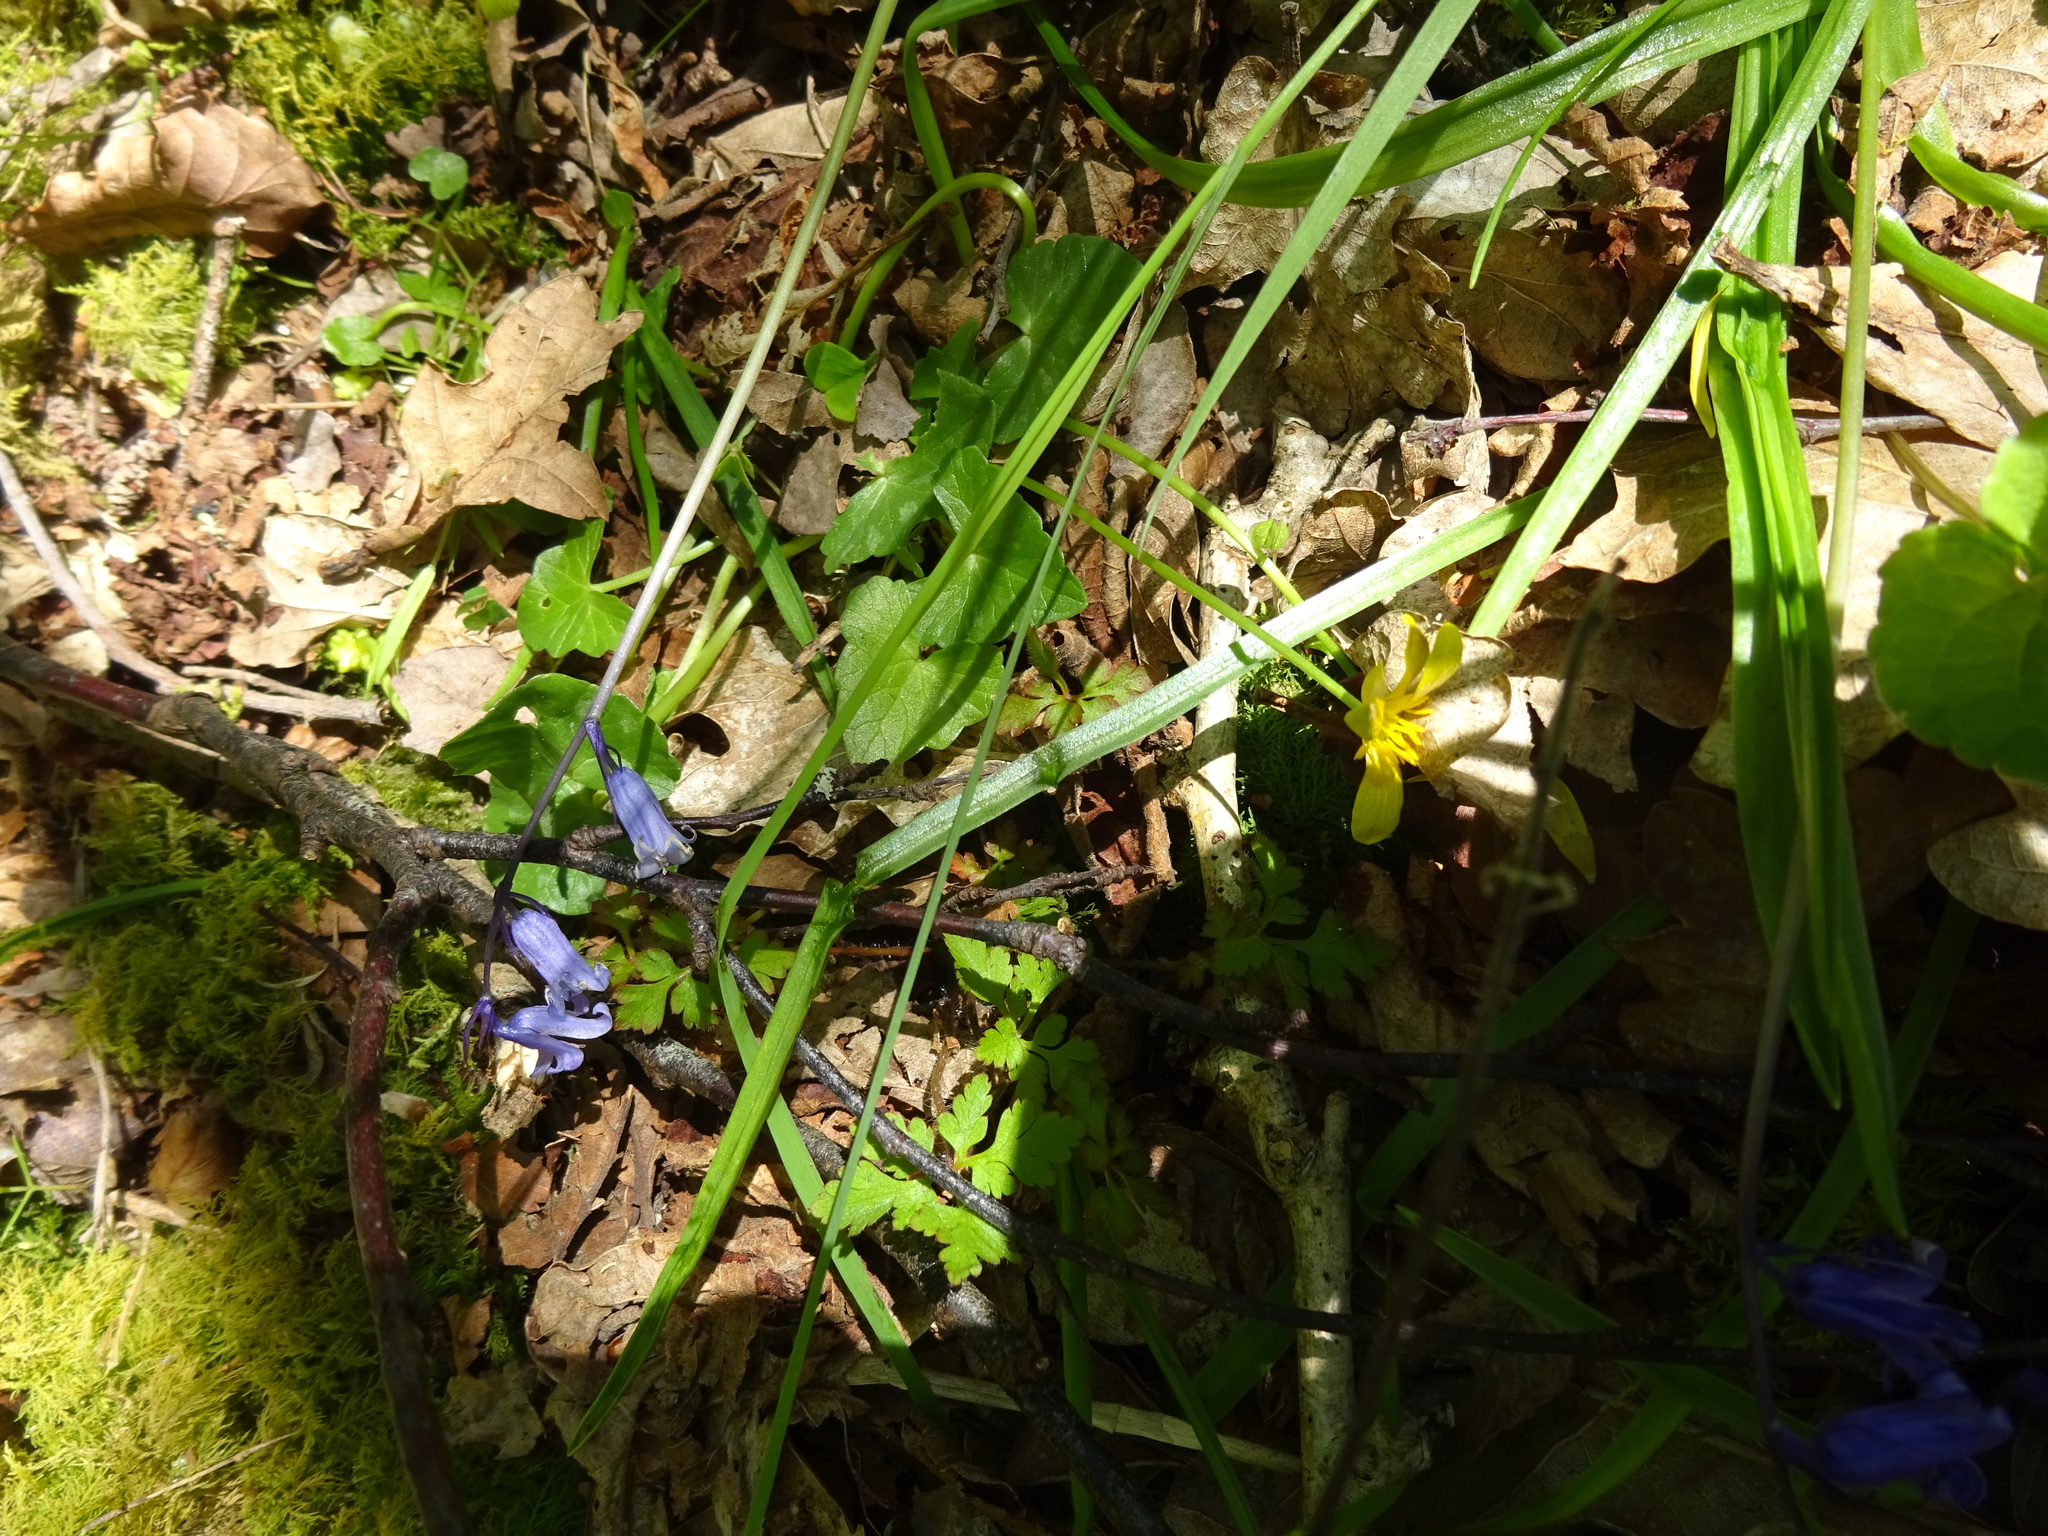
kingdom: Plantae
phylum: Tracheophyta
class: Magnoliopsida
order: Ranunculales
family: Ranunculaceae
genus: Ficaria
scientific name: Ficaria verna
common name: Lesser celandine
